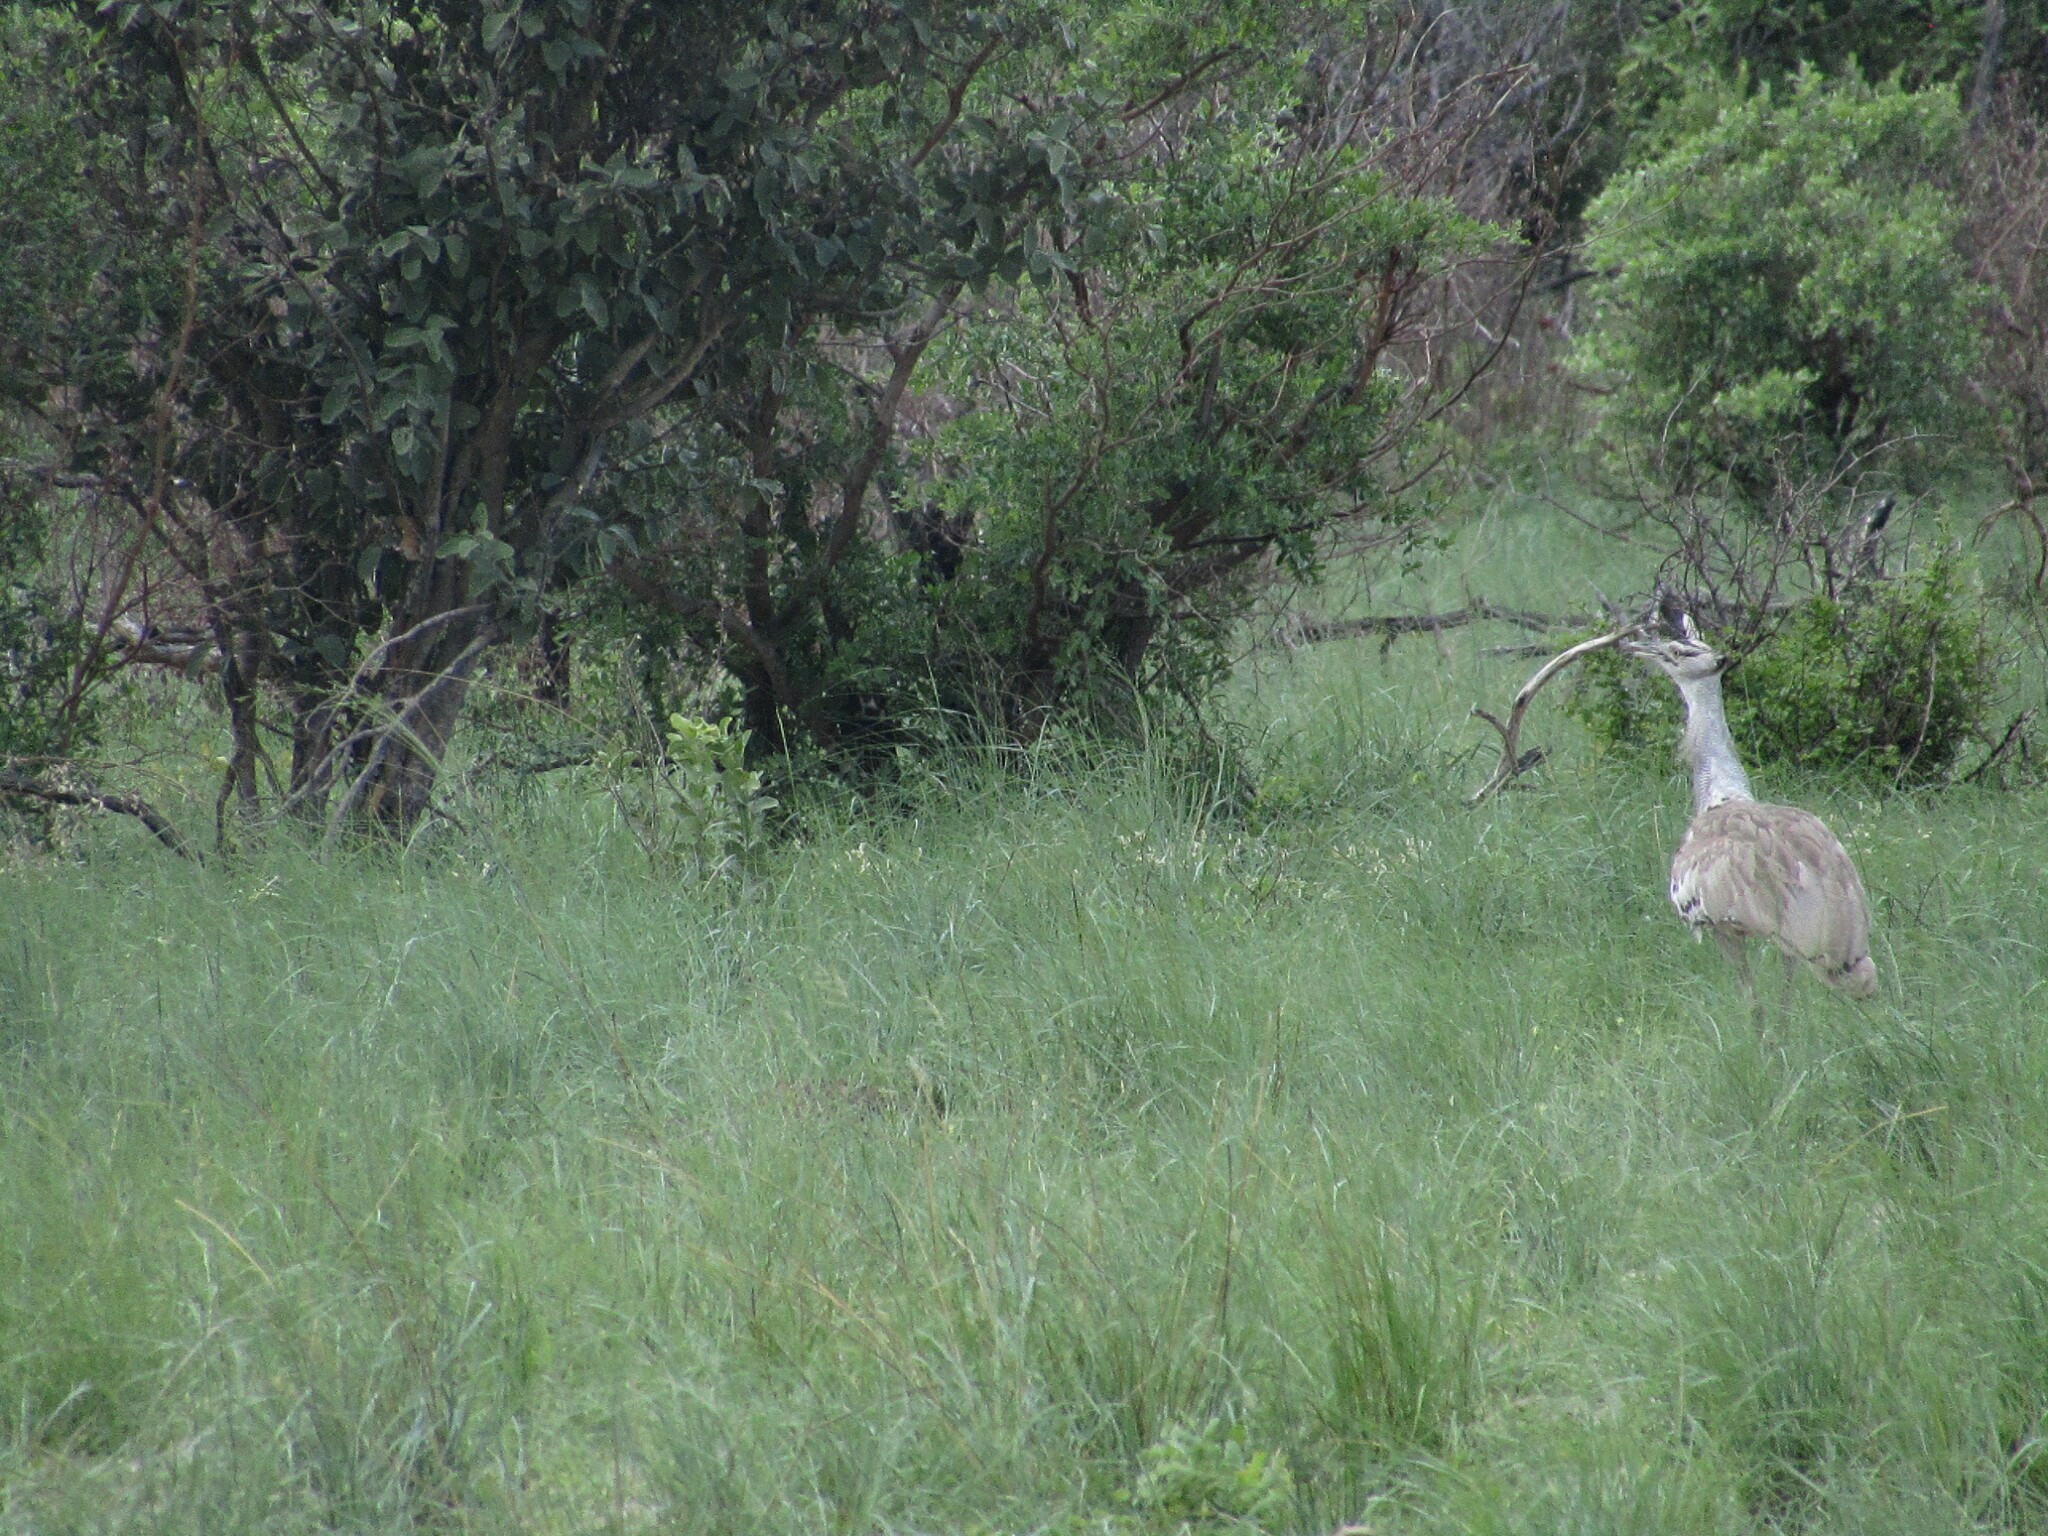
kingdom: Animalia
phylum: Chordata
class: Aves
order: Otidiformes
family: Otididae
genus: Ardeotis
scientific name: Ardeotis kori
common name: Kori bustard
